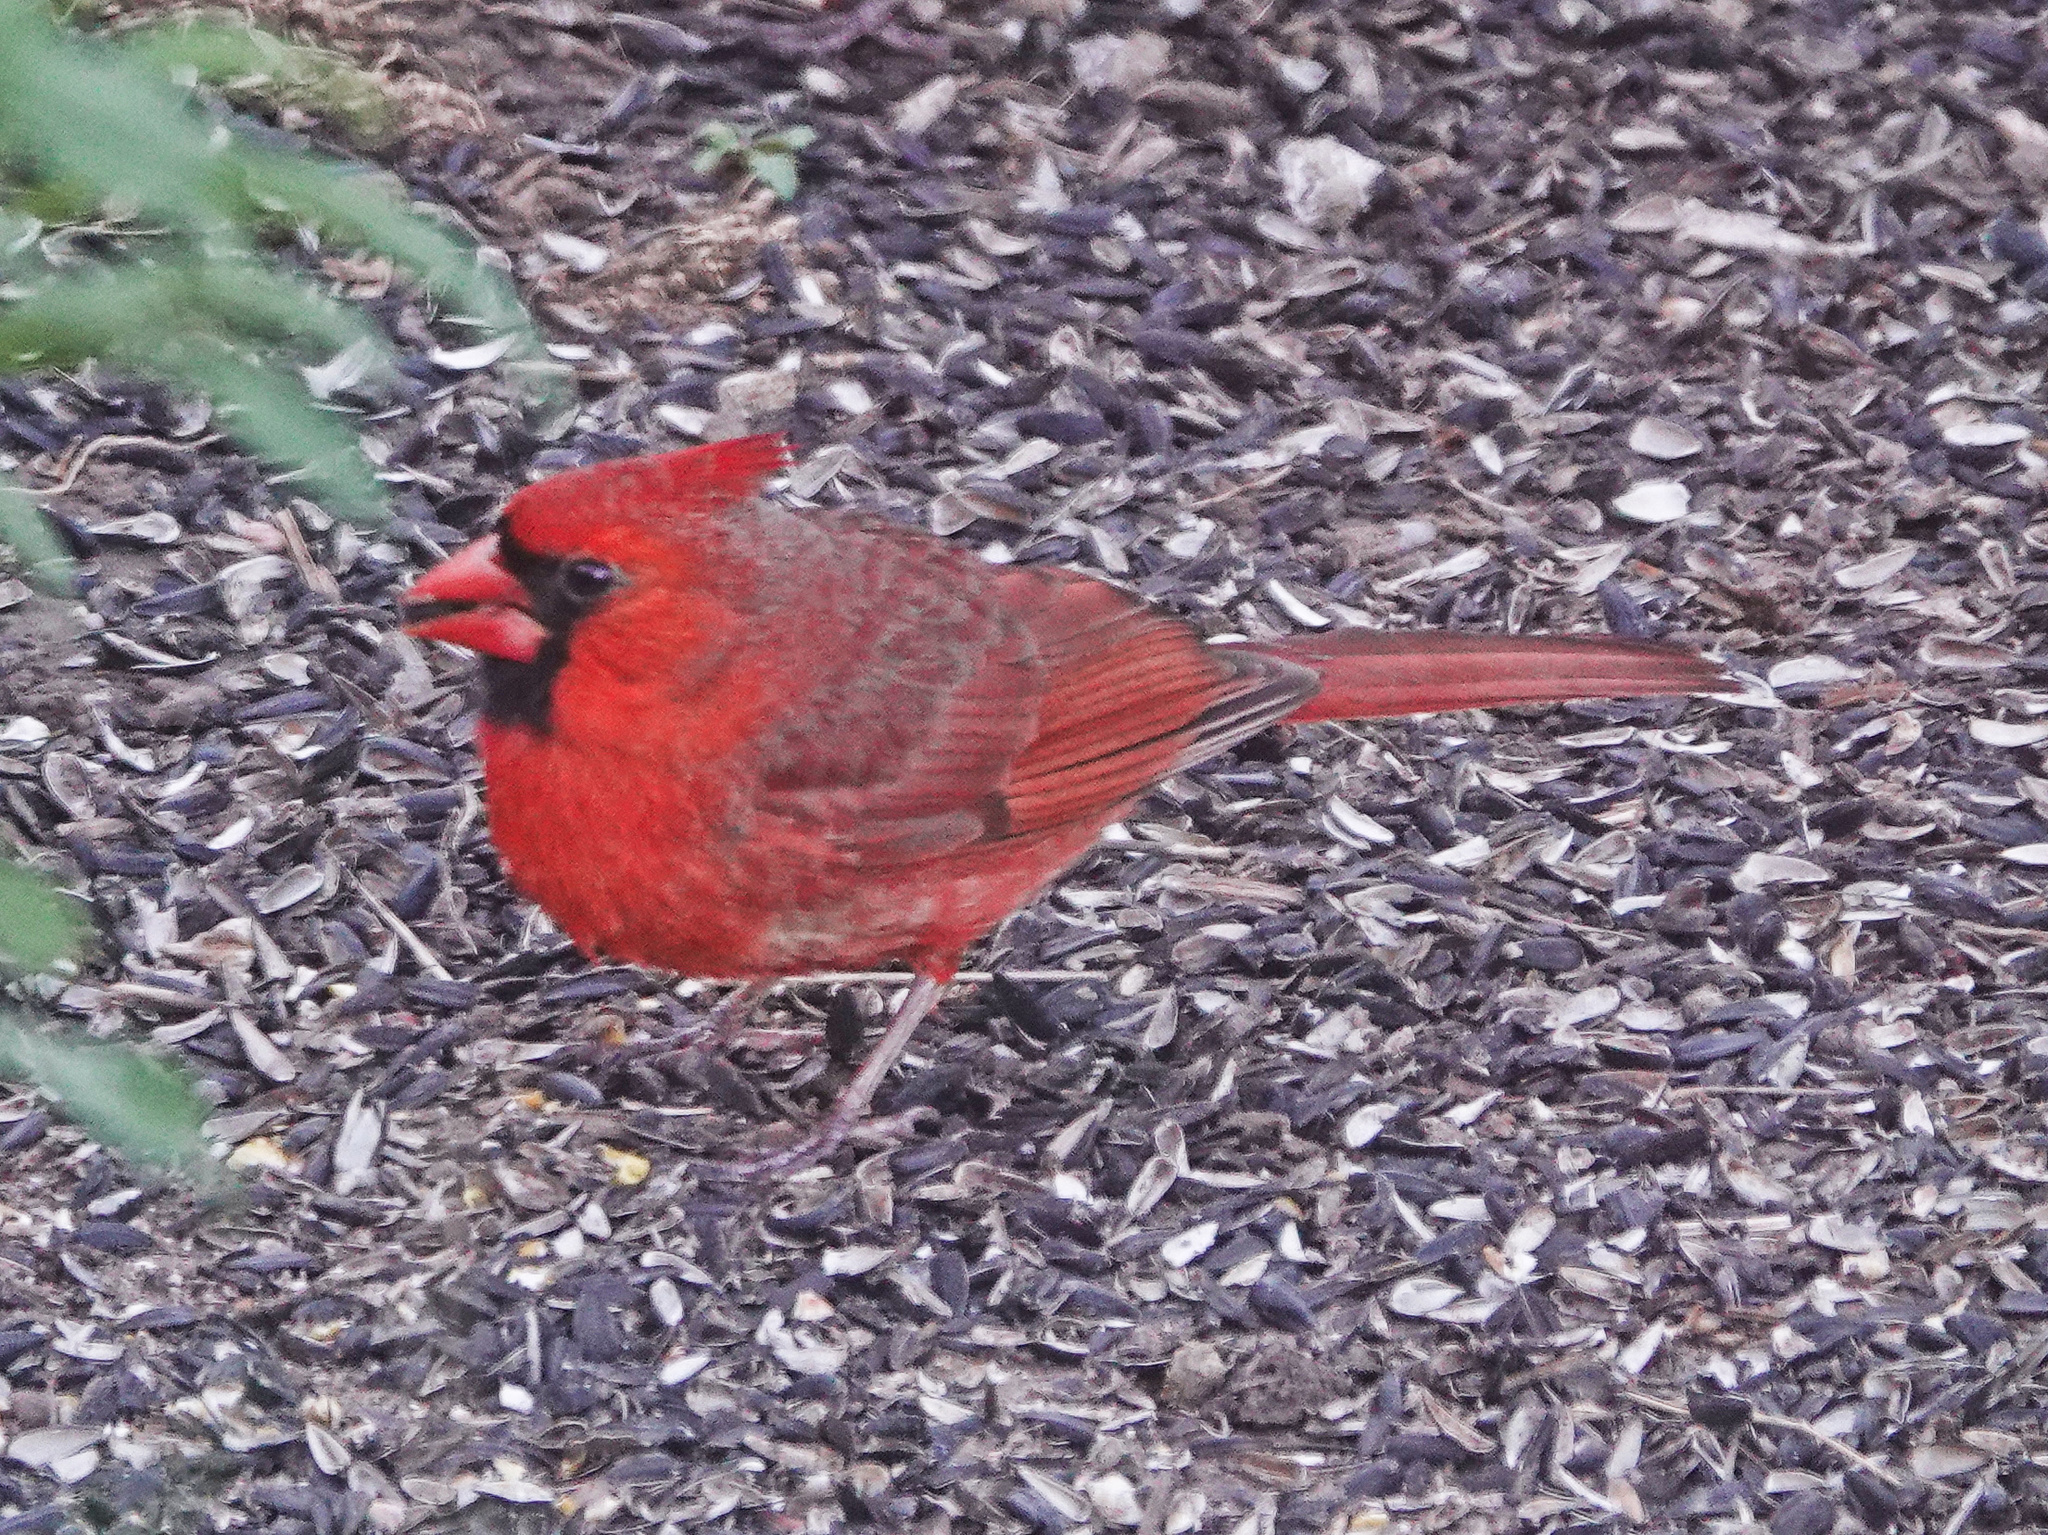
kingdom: Animalia
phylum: Chordata
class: Aves
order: Passeriformes
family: Cardinalidae
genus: Cardinalis
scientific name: Cardinalis cardinalis
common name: Northern cardinal
